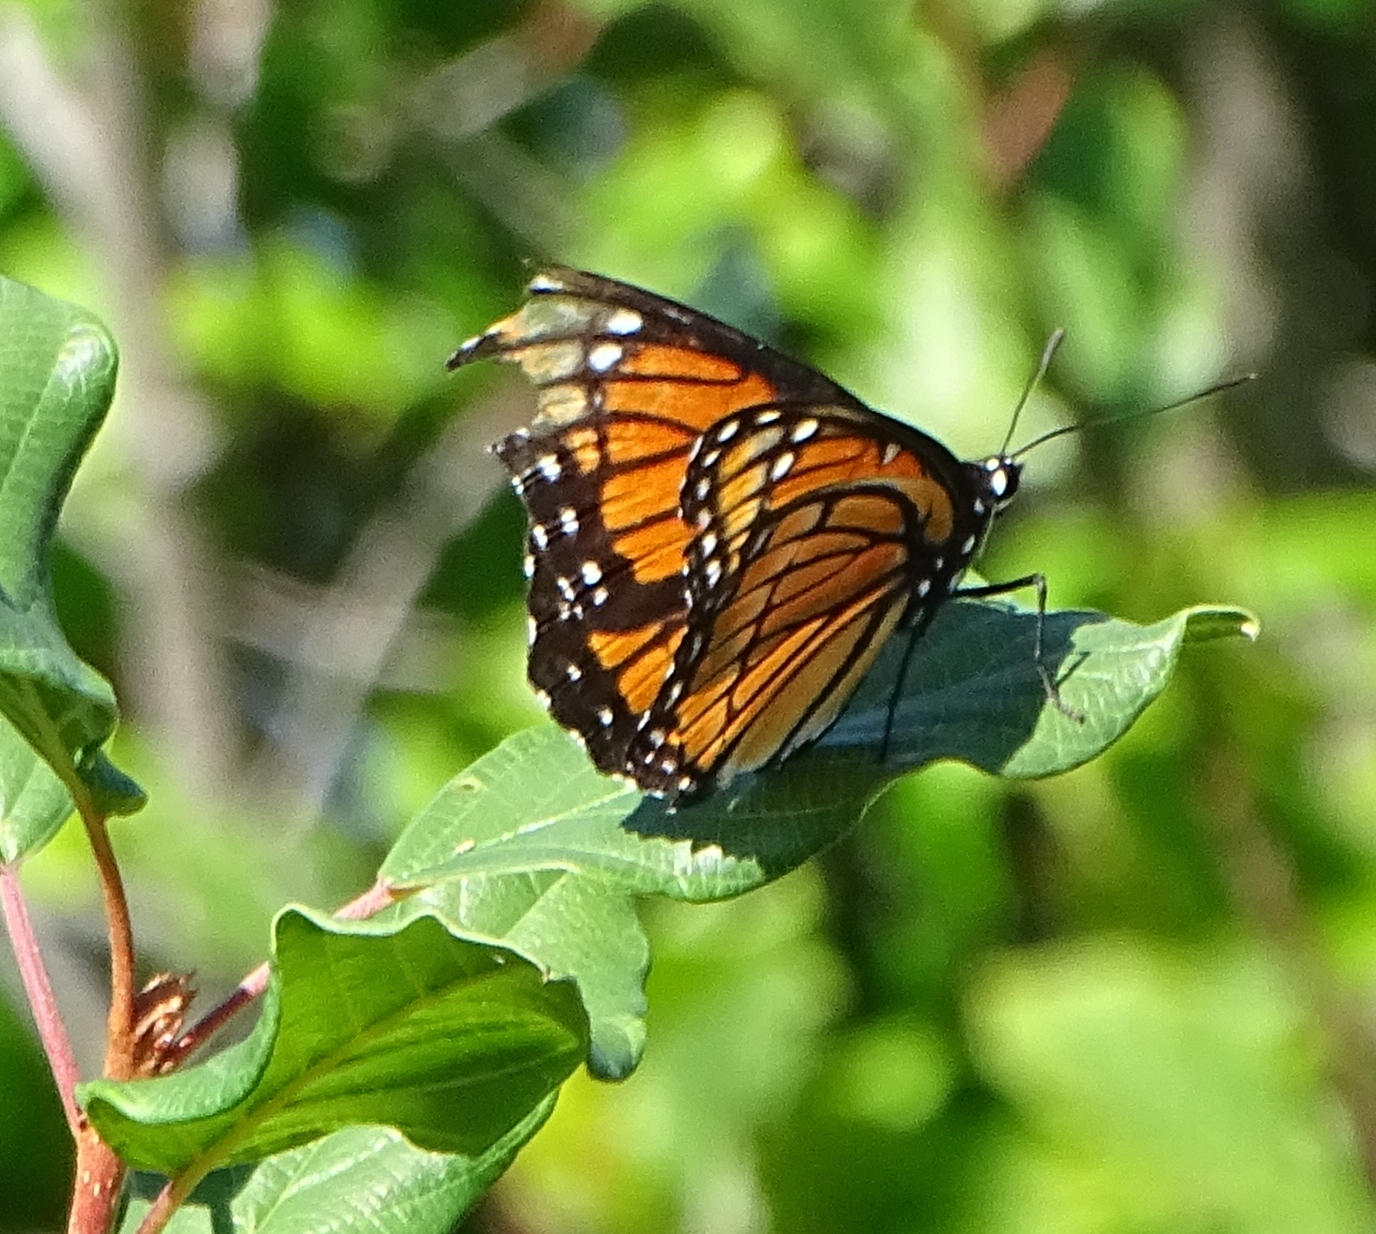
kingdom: Animalia
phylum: Arthropoda
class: Insecta
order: Lepidoptera
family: Nymphalidae
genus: Limenitis
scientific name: Limenitis archippus
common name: Viceroy
